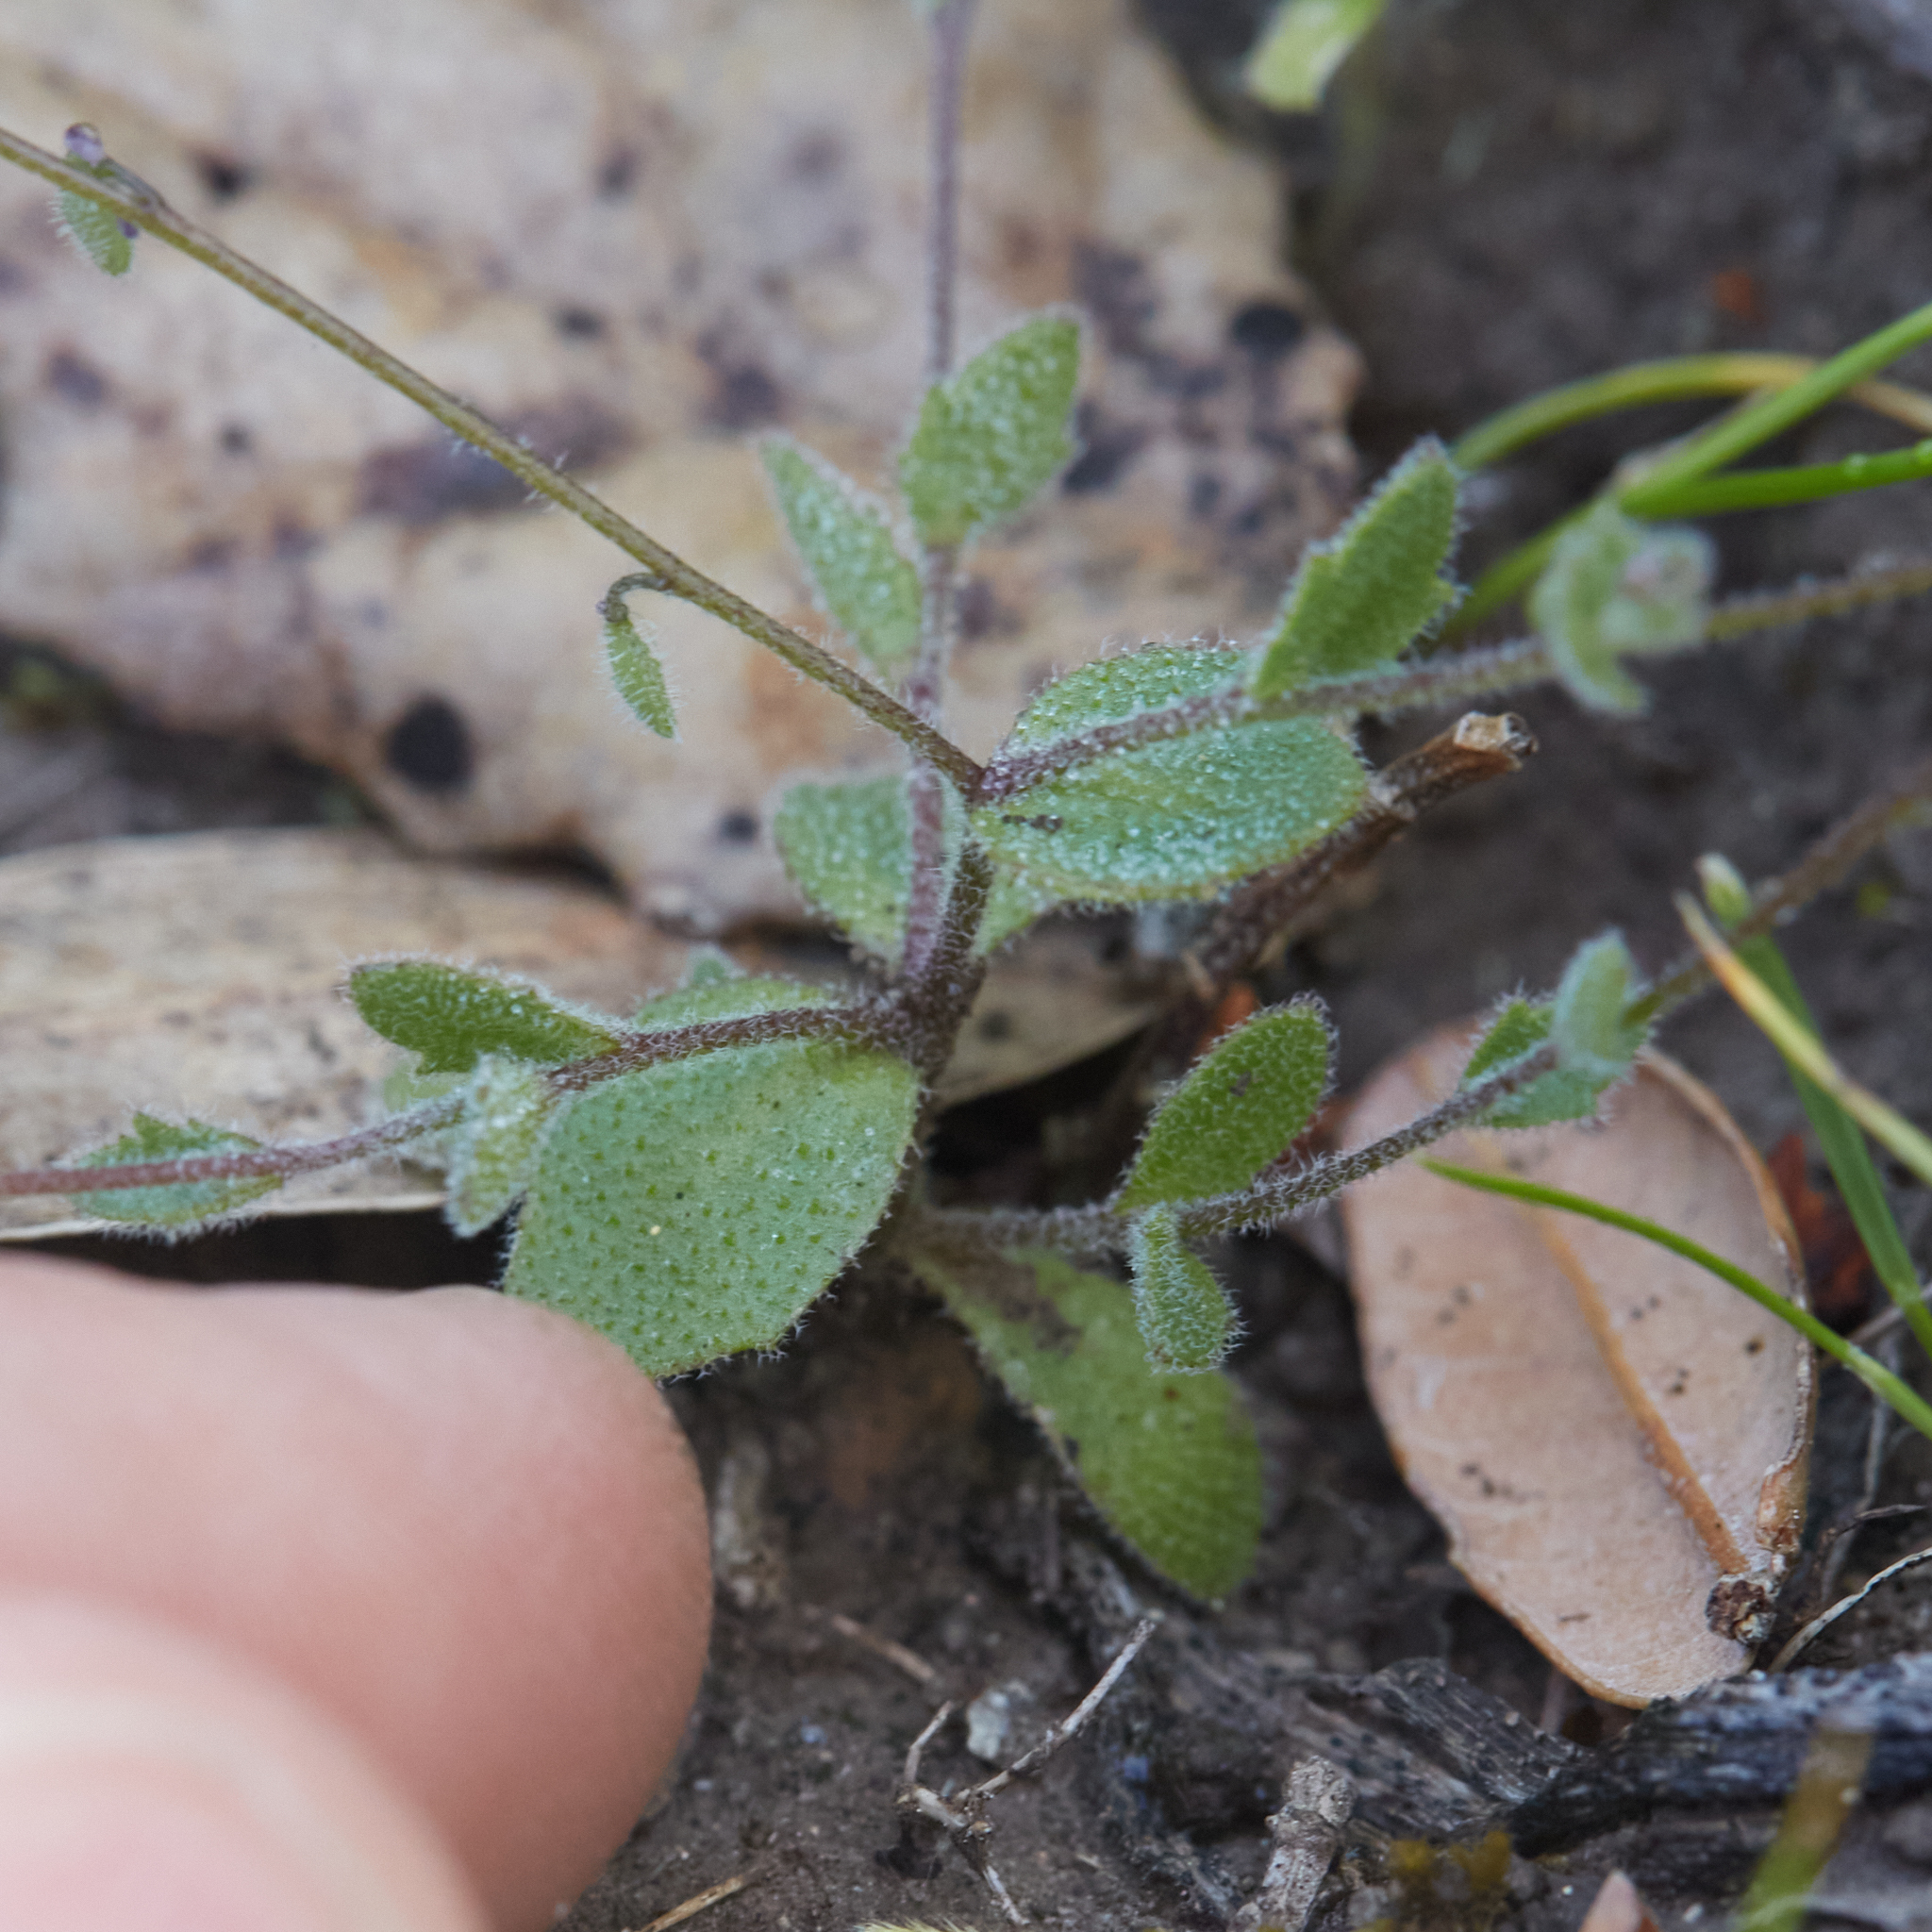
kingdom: Plantae
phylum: Tracheophyta
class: Magnoliopsida
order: Brassicales
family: Brassicaceae
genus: Athysanus
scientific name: Athysanus pusillus
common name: Common sandweed
